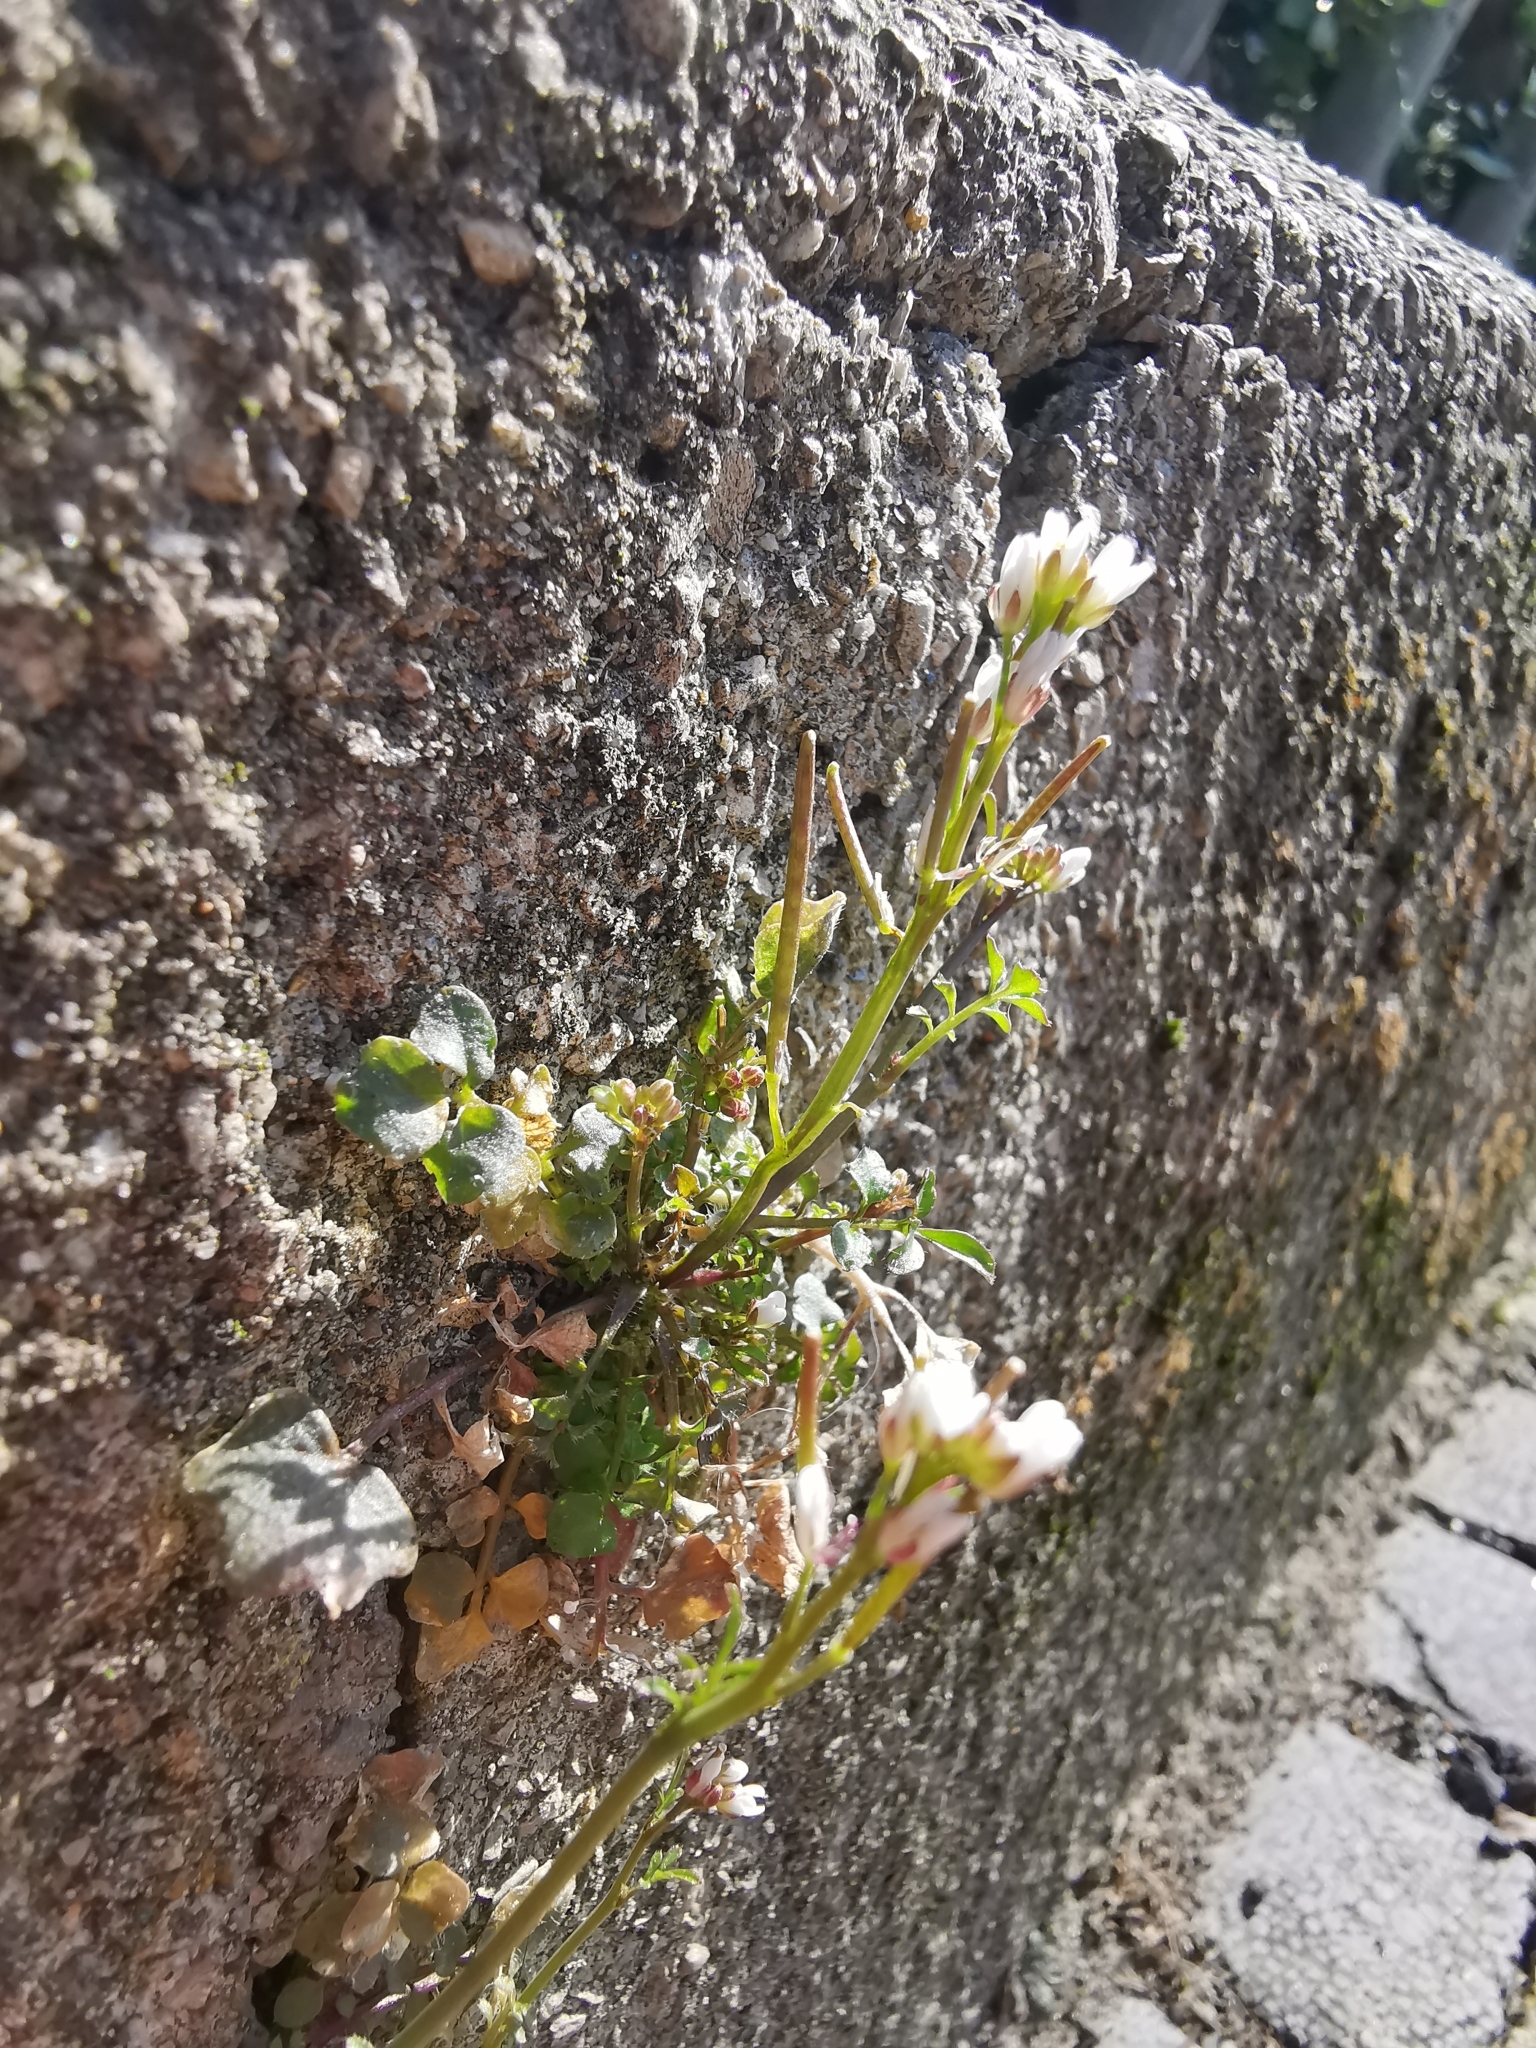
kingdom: Plantae
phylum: Tracheophyta
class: Magnoliopsida
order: Brassicales
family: Brassicaceae
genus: Cardamine
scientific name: Cardamine hirsuta
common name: Hairy bittercress
